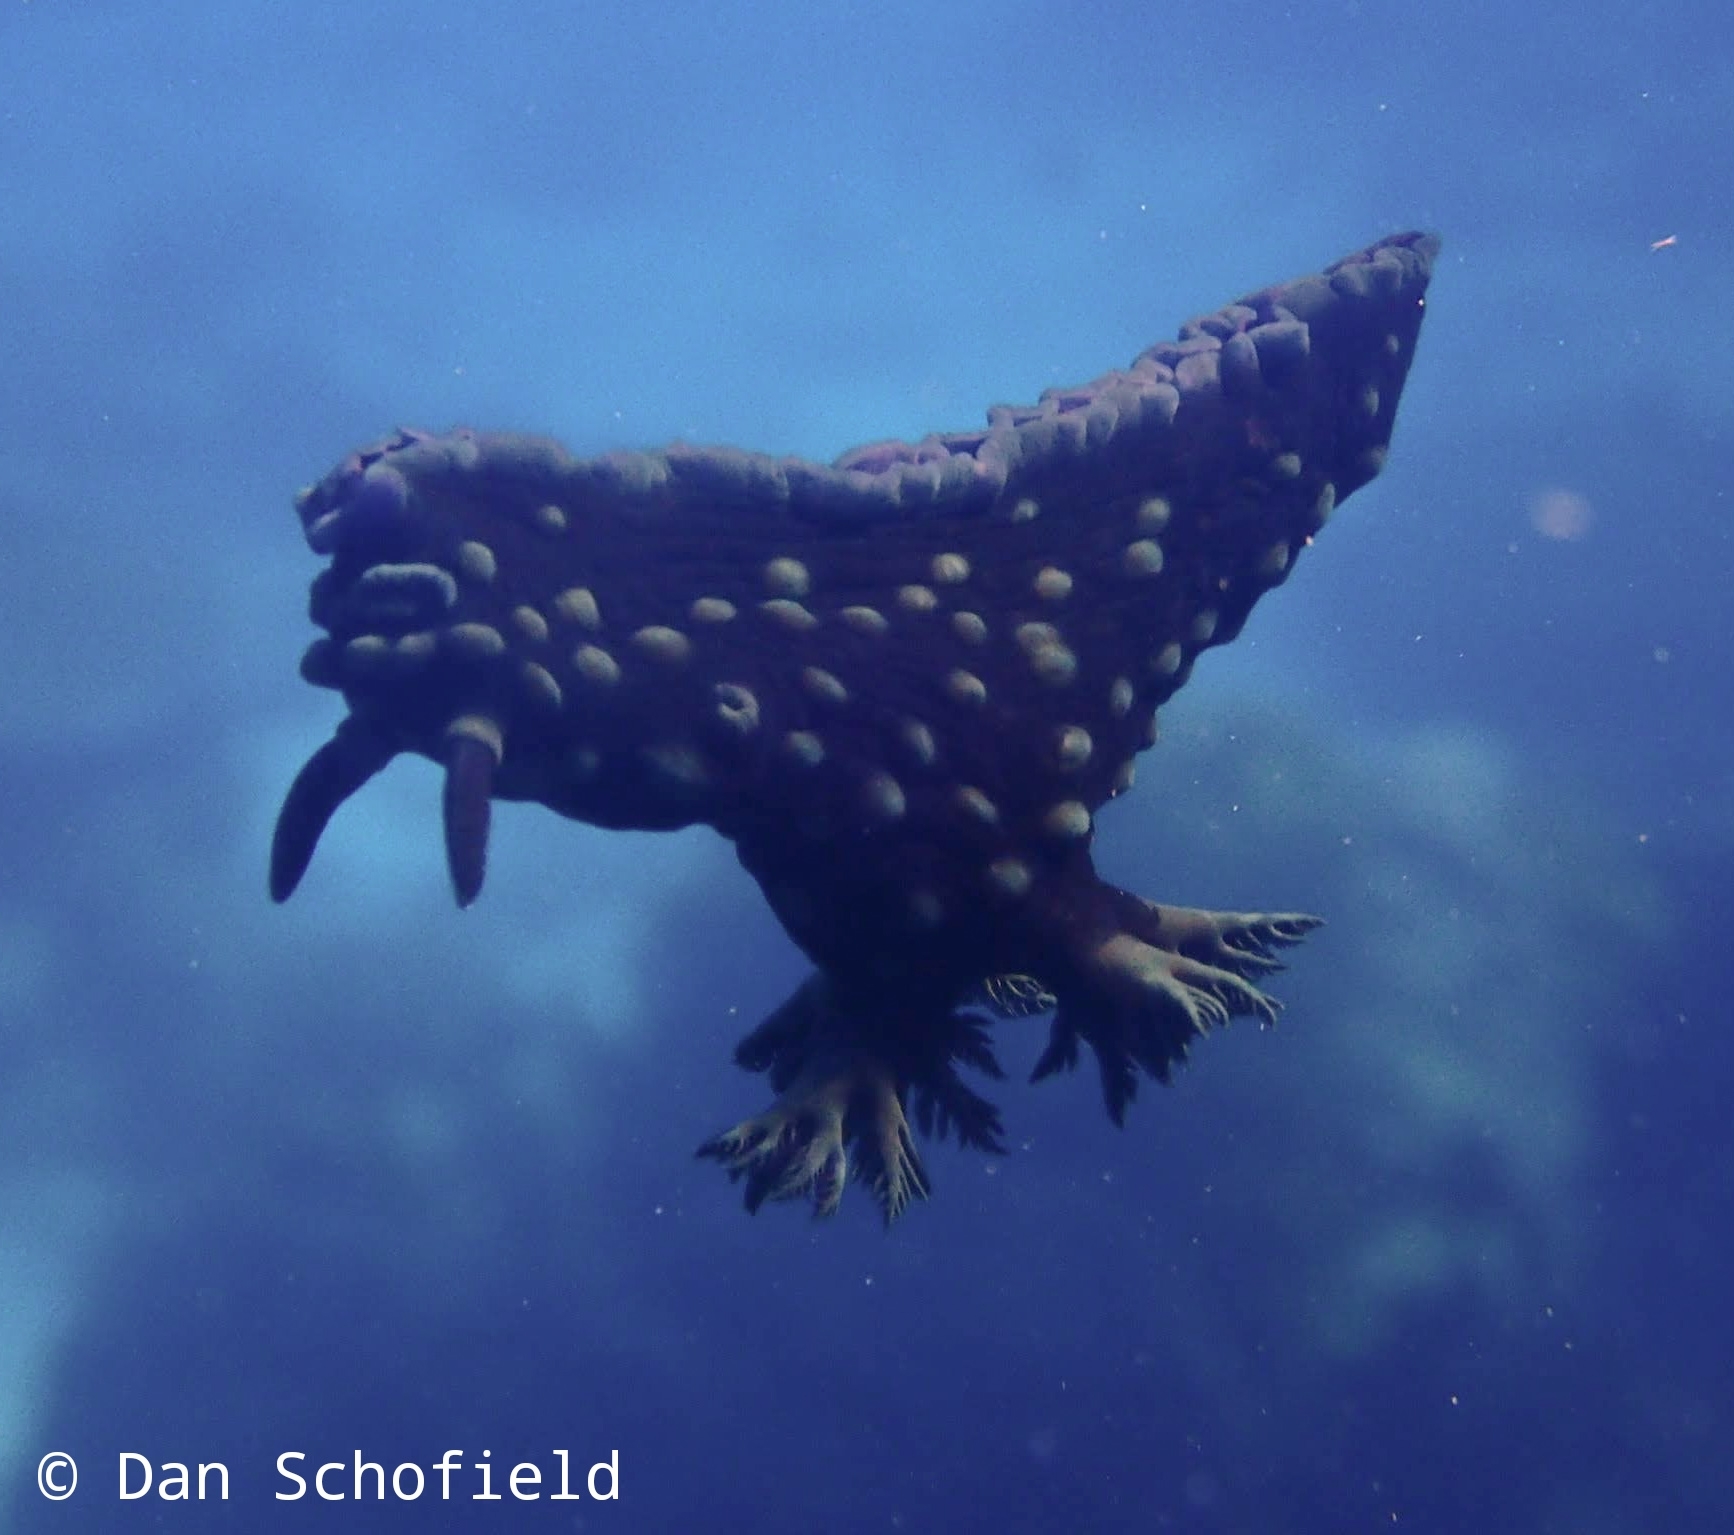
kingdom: Animalia
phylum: Mollusca
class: Gastropoda
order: Nudibranchia
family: Polyceridae
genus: Nembrotha
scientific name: Nembrotha cristata
